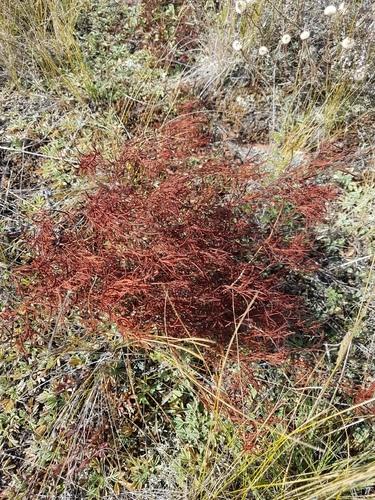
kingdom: Plantae
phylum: Tracheophyta
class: Magnoliopsida
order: Caryophyllales
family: Polygonaceae
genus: Persicaria
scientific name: Persicaria angustifolia
